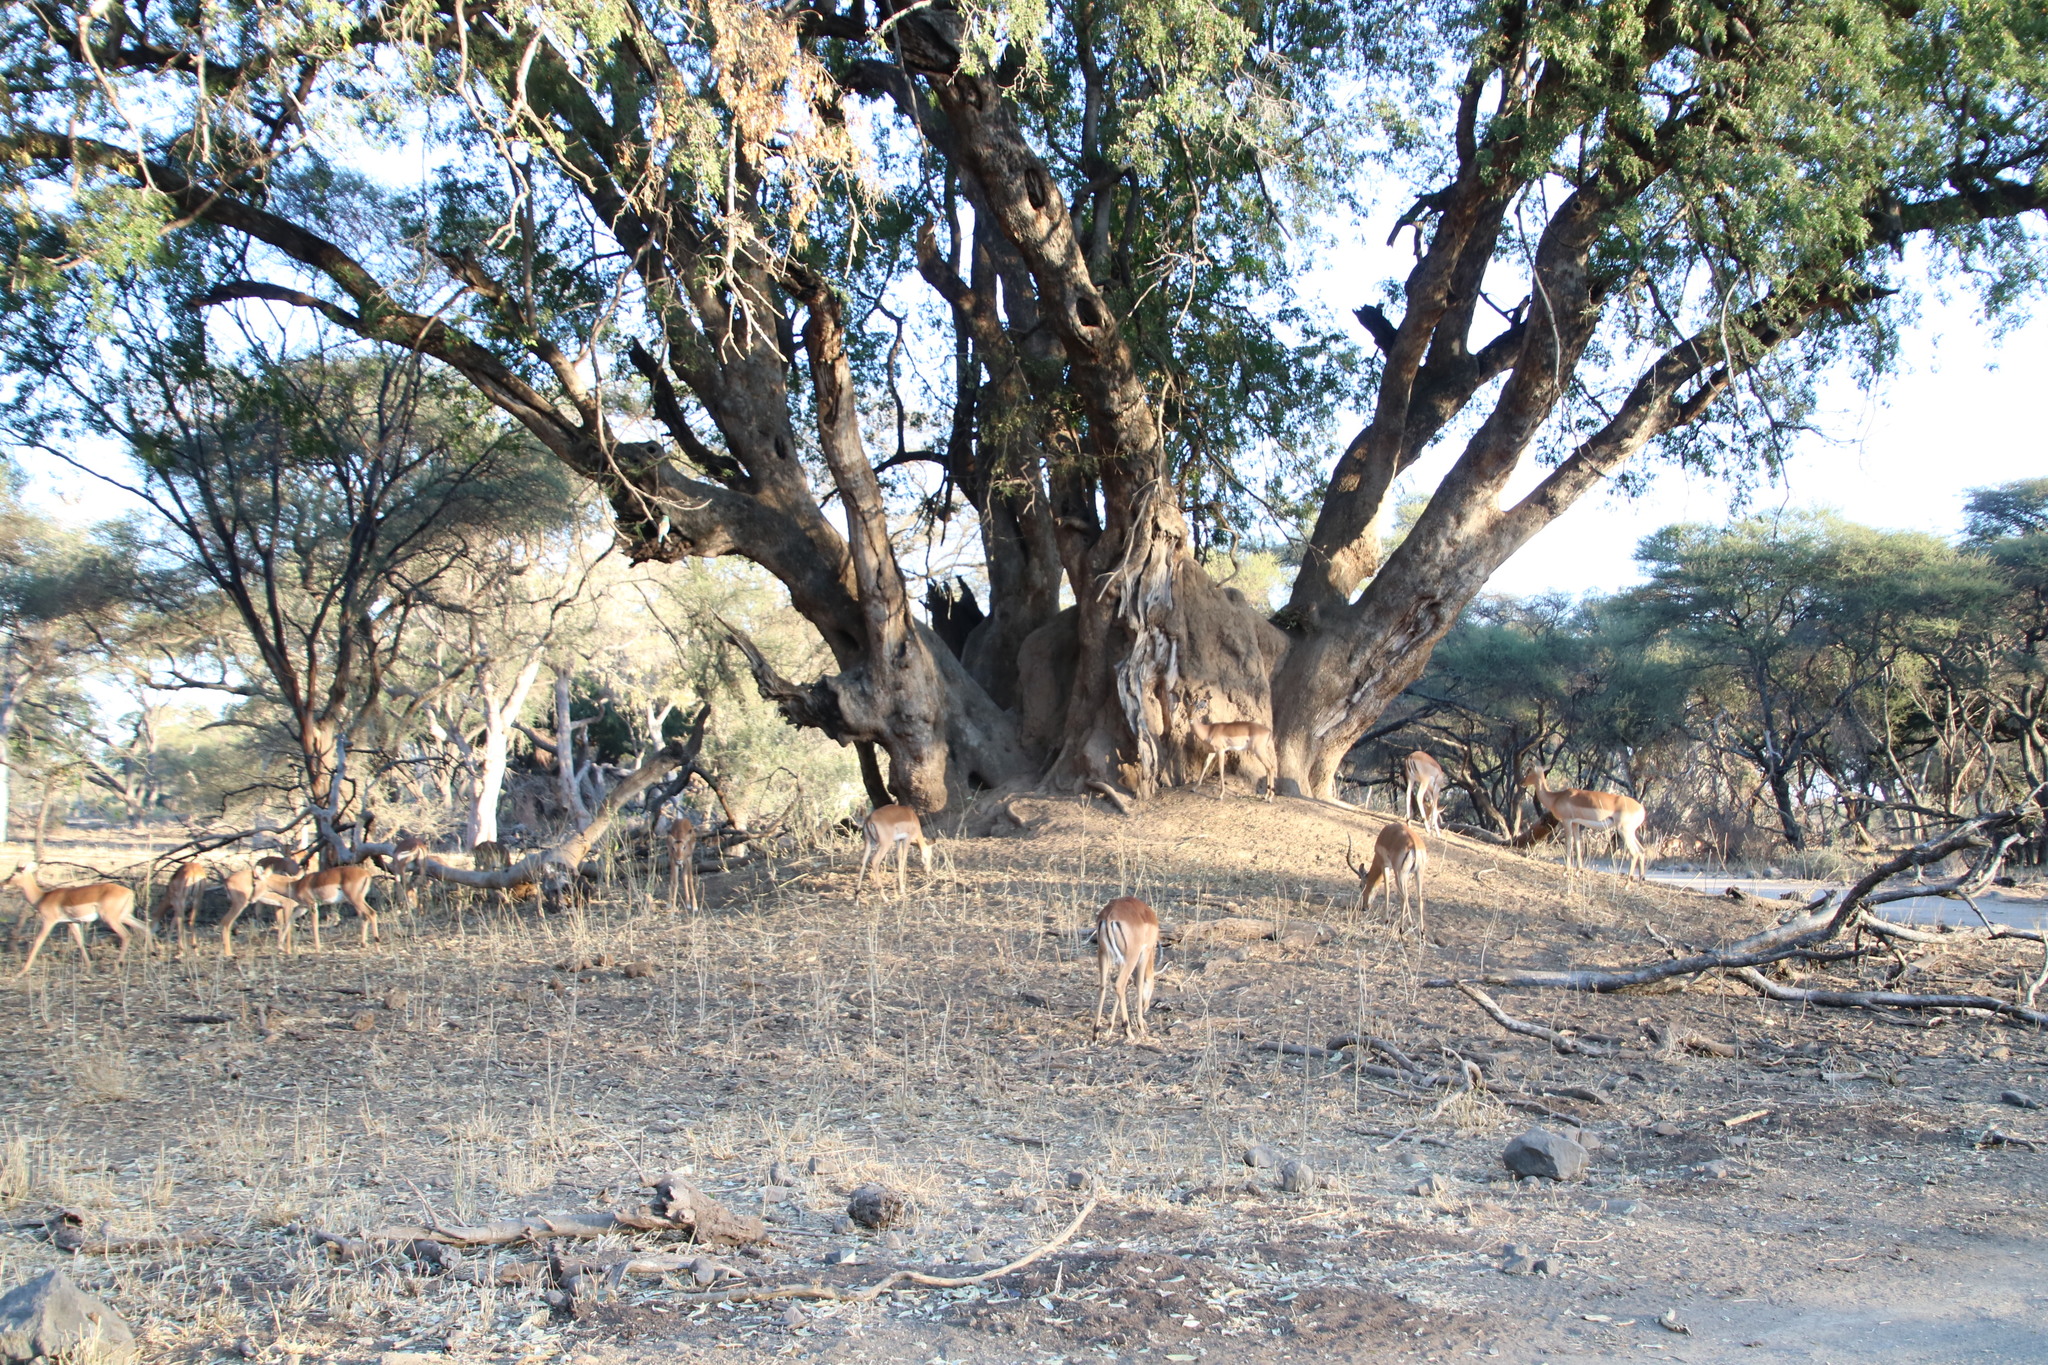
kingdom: Animalia
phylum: Chordata
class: Mammalia
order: Artiodactyla
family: Bovidae
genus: Aepyceros
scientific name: Aepyceros melampus
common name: Impala
